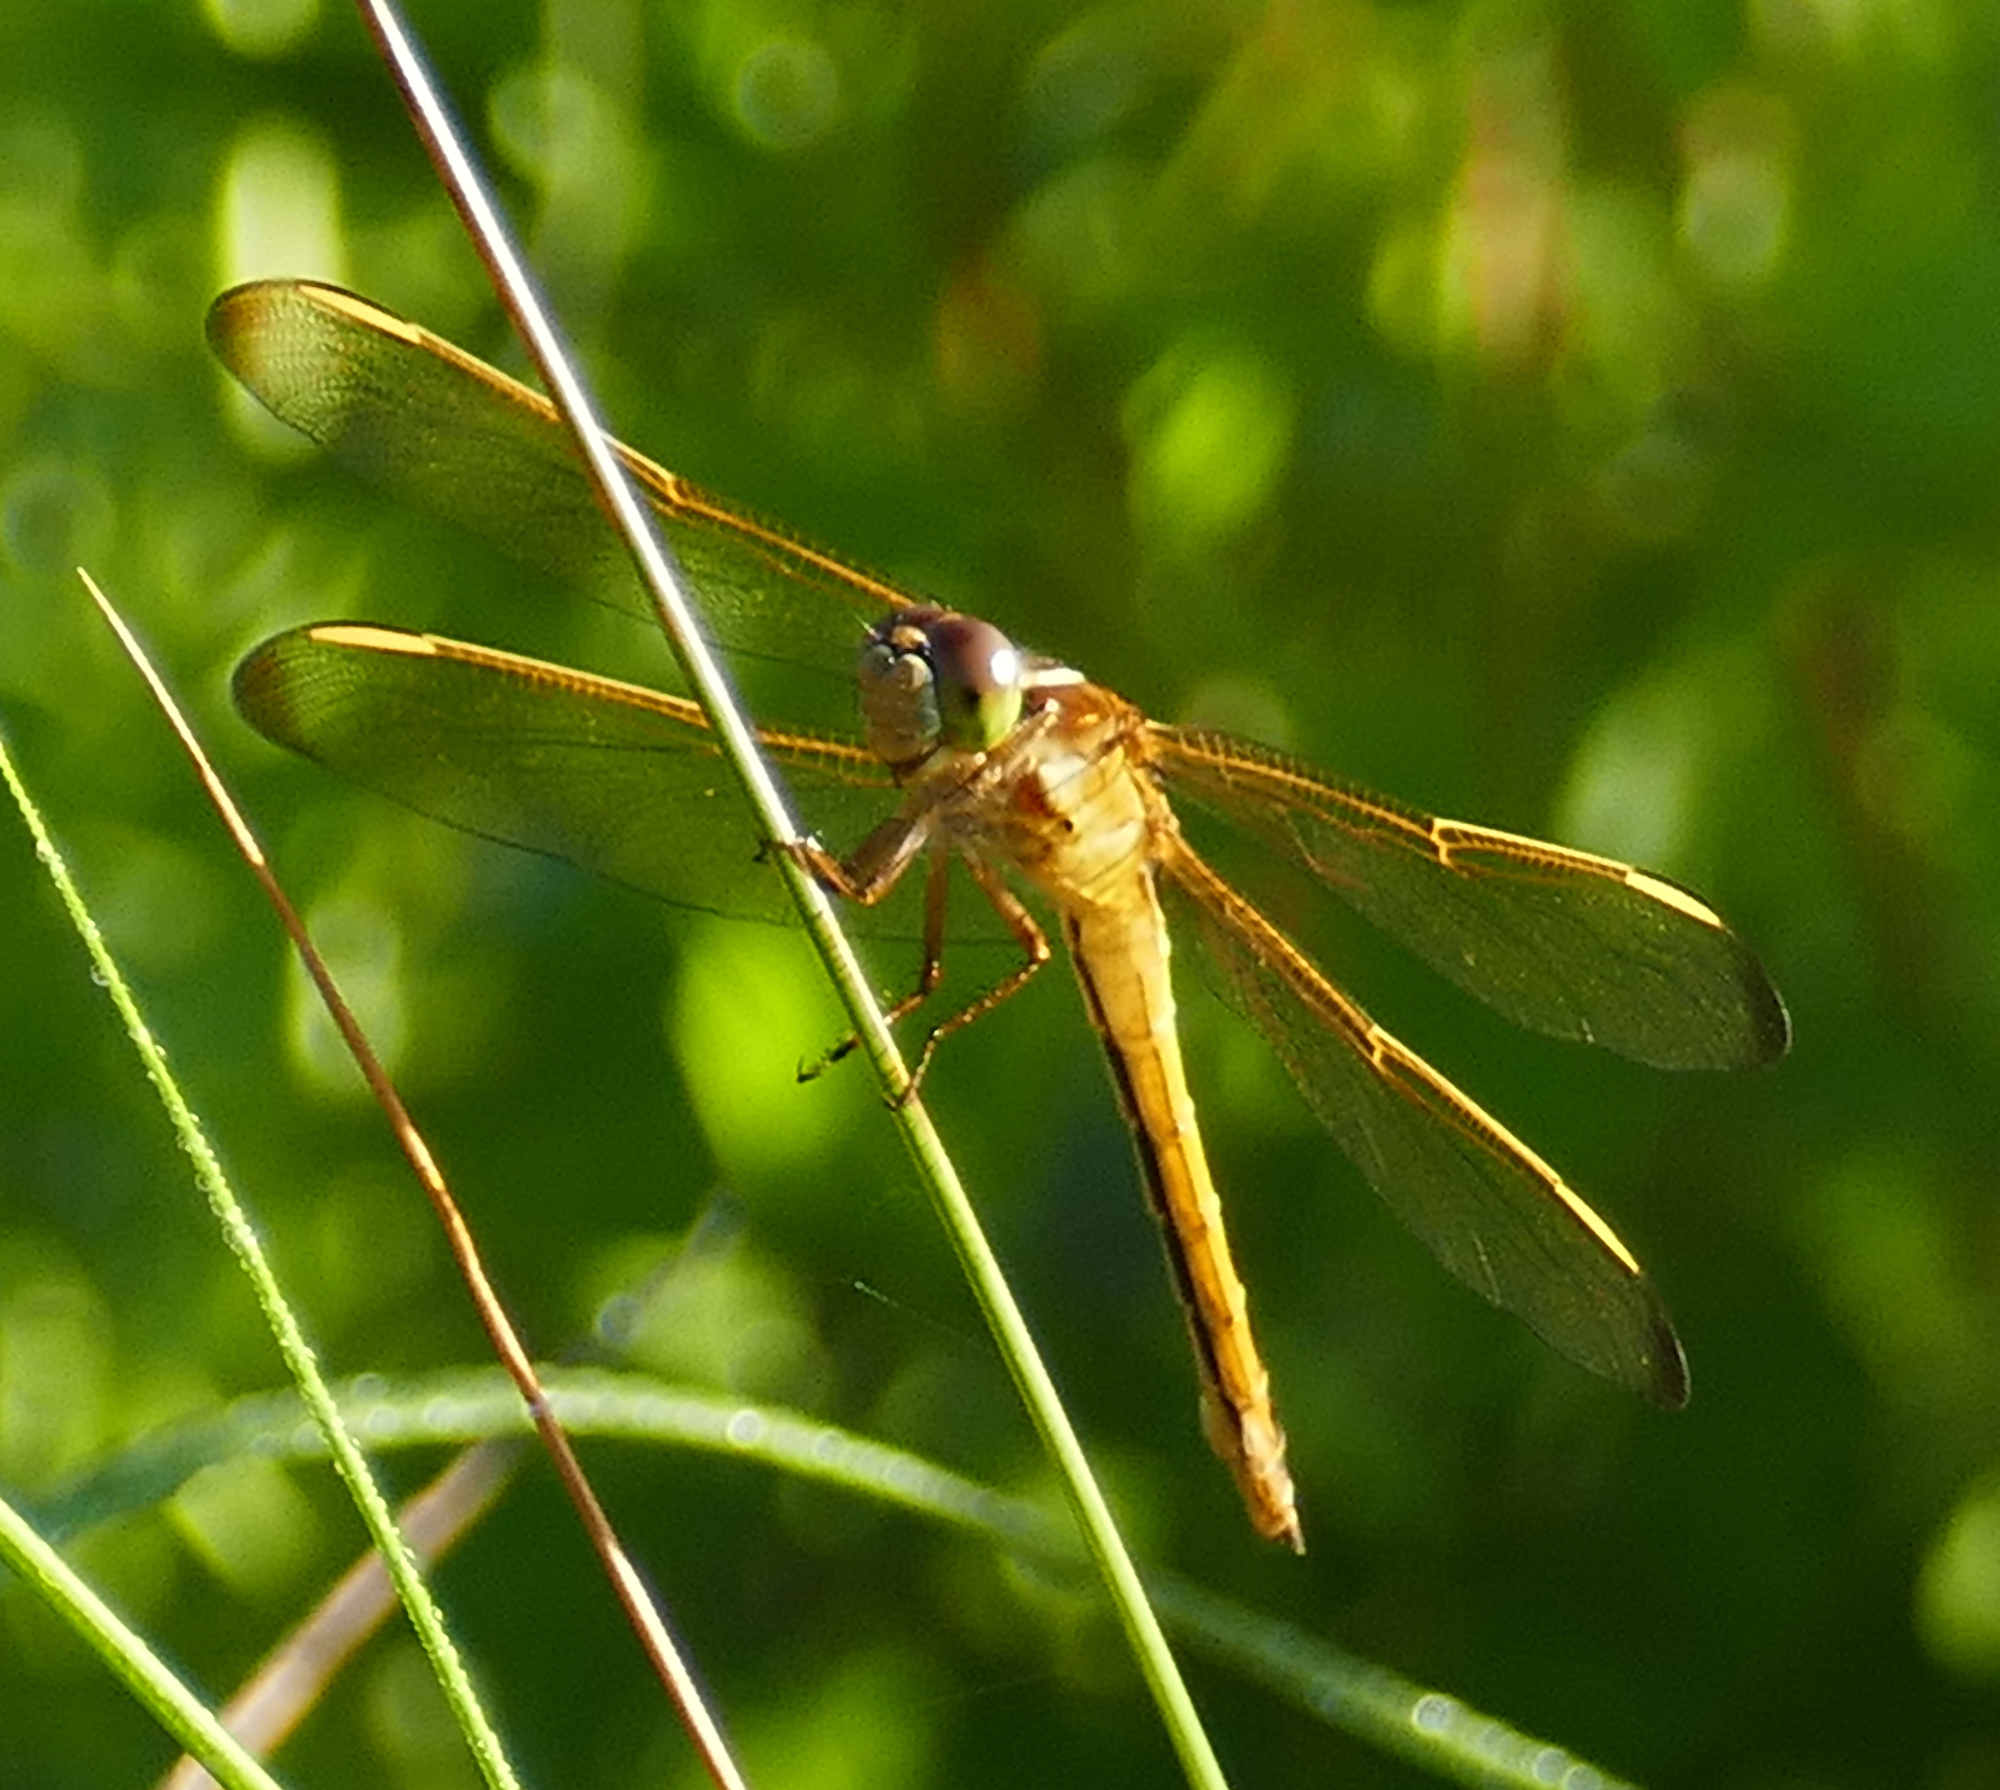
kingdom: Animalia
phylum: Arthropoda
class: Insecta
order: Odonata
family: Libellulidae
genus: Libellula
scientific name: Libellula needhami
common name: Needham's skimmer
